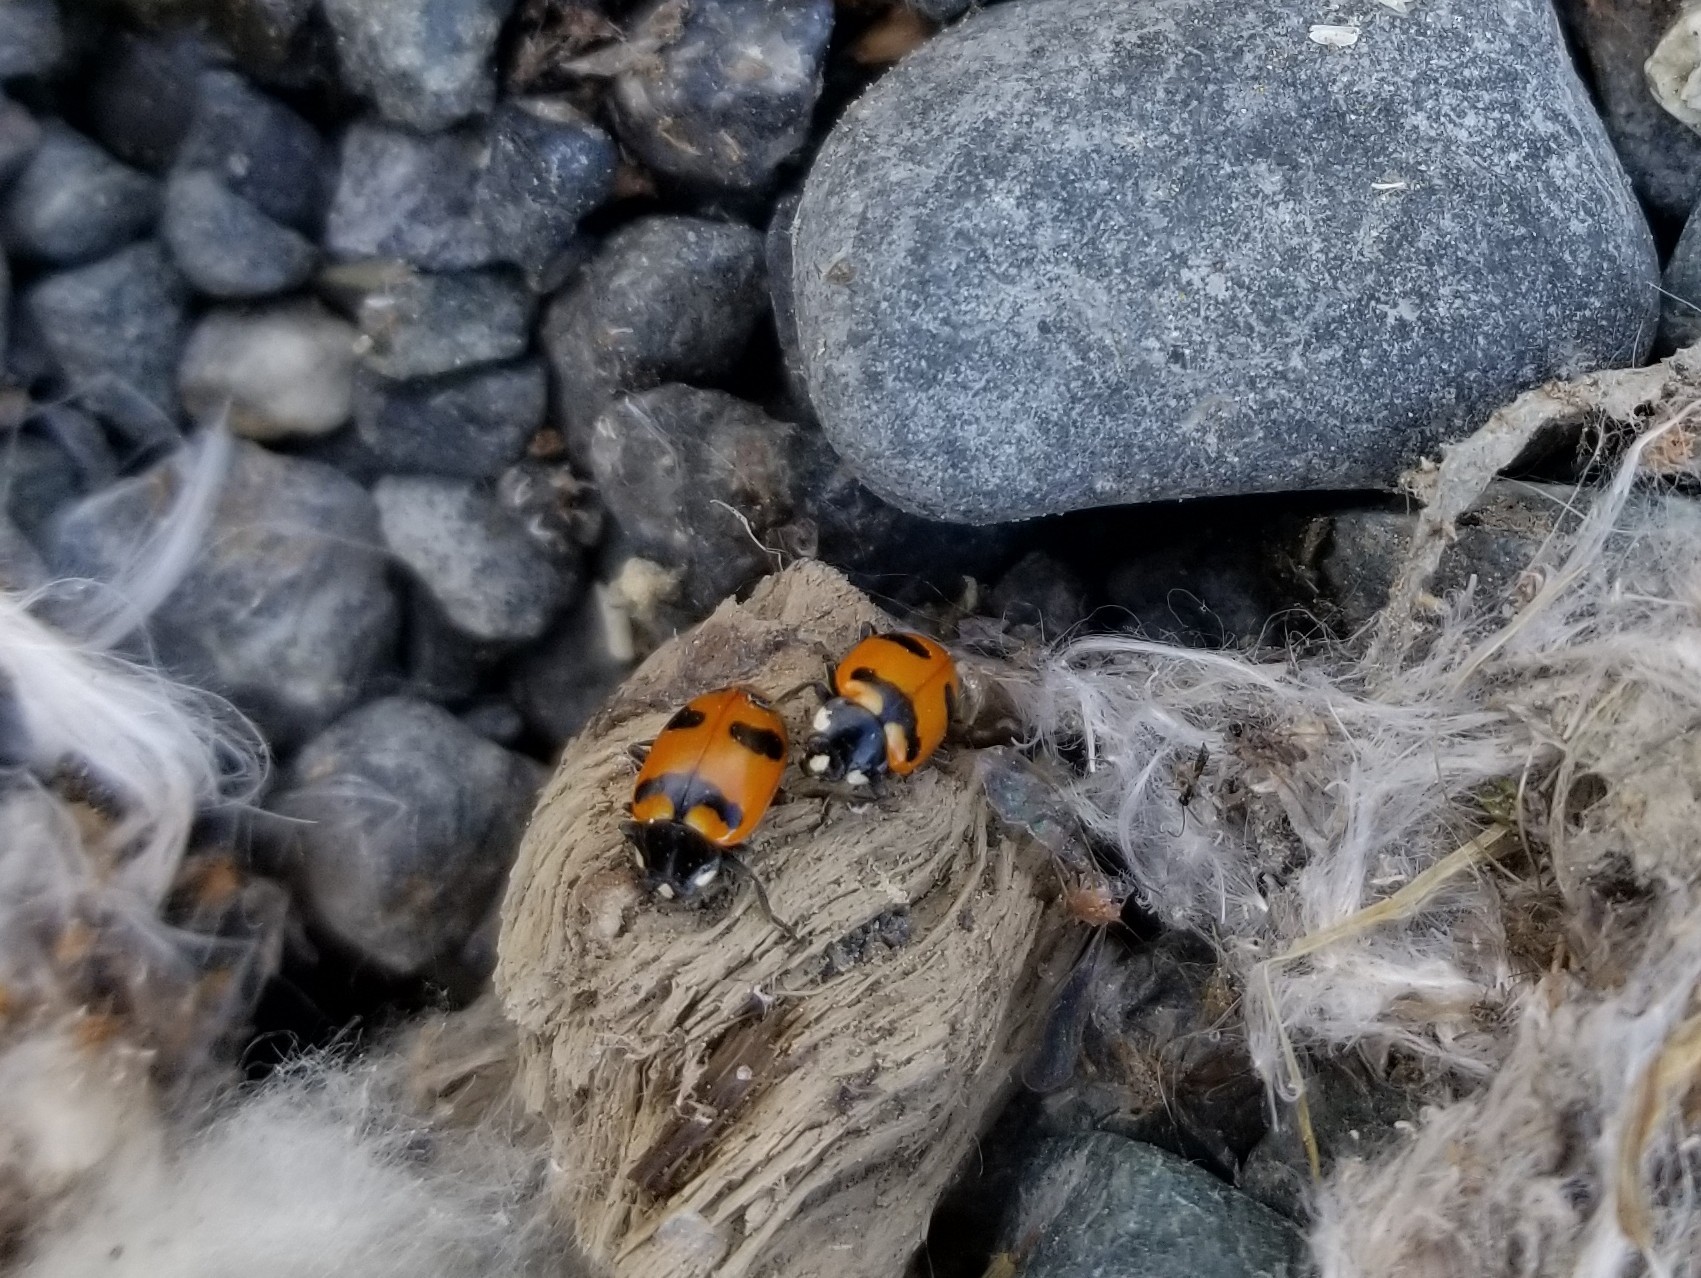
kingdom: Animalia
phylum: Arthropoda
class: Insecta
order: Coleoptera
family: Coccinellidae
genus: Hippodamia
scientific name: Hippodamia quinquesignata
